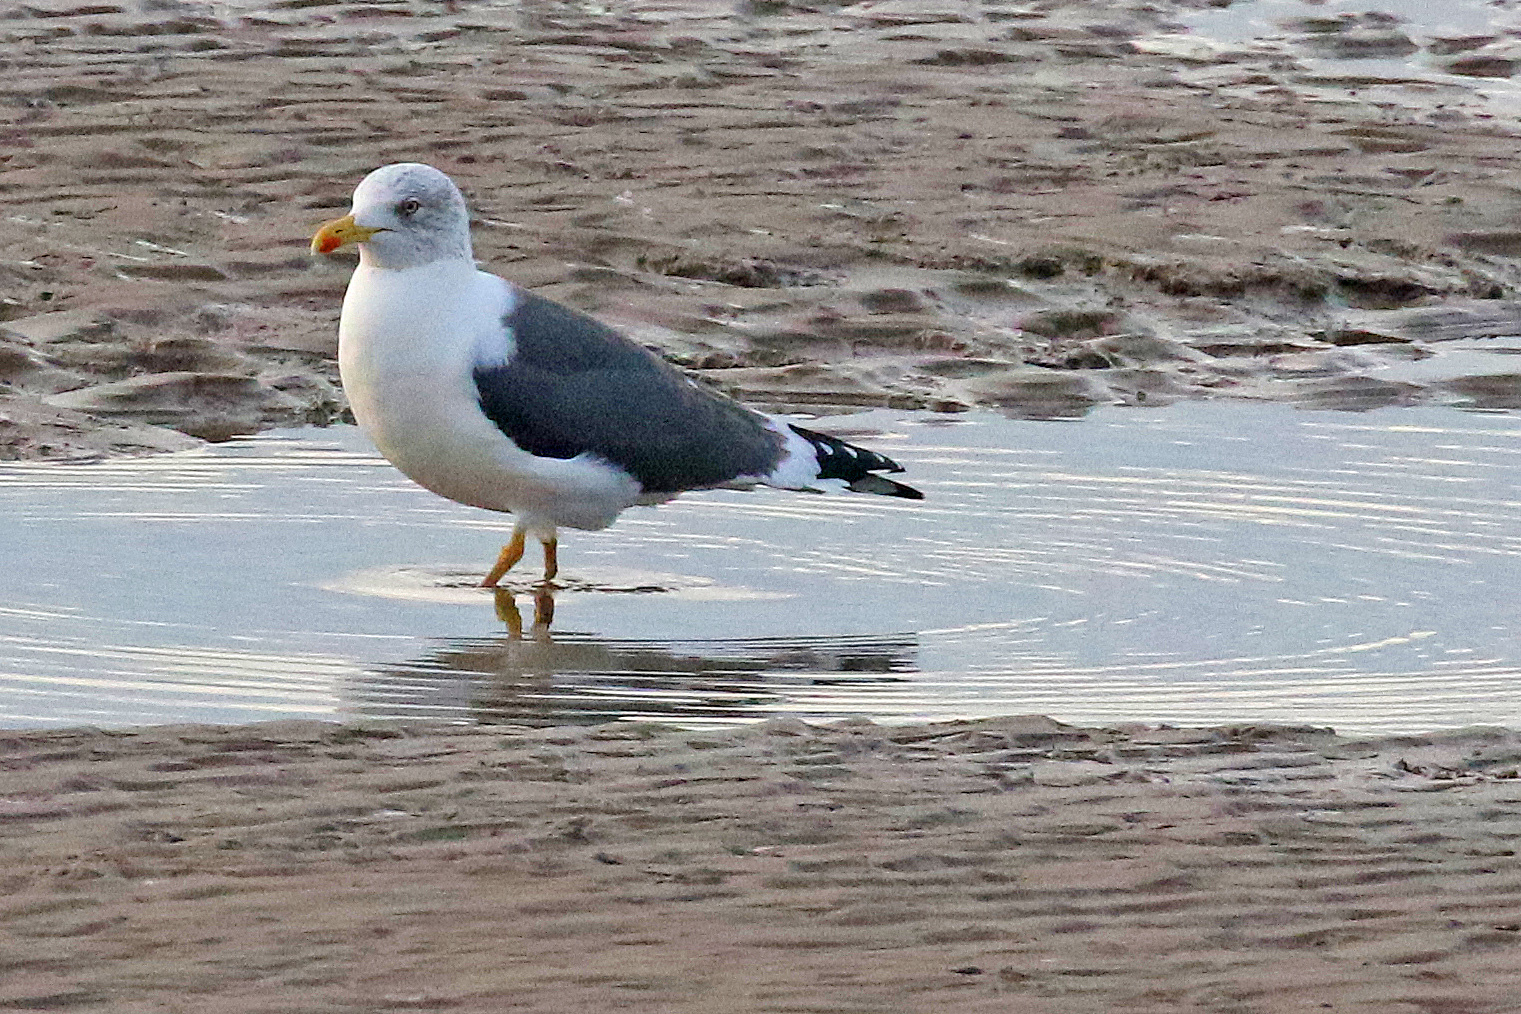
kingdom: Animalia
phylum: Chordata
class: Aves
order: Charadriiformes
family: Laridae
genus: Larus
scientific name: Larus fuscus
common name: Lesser black-backed gull
